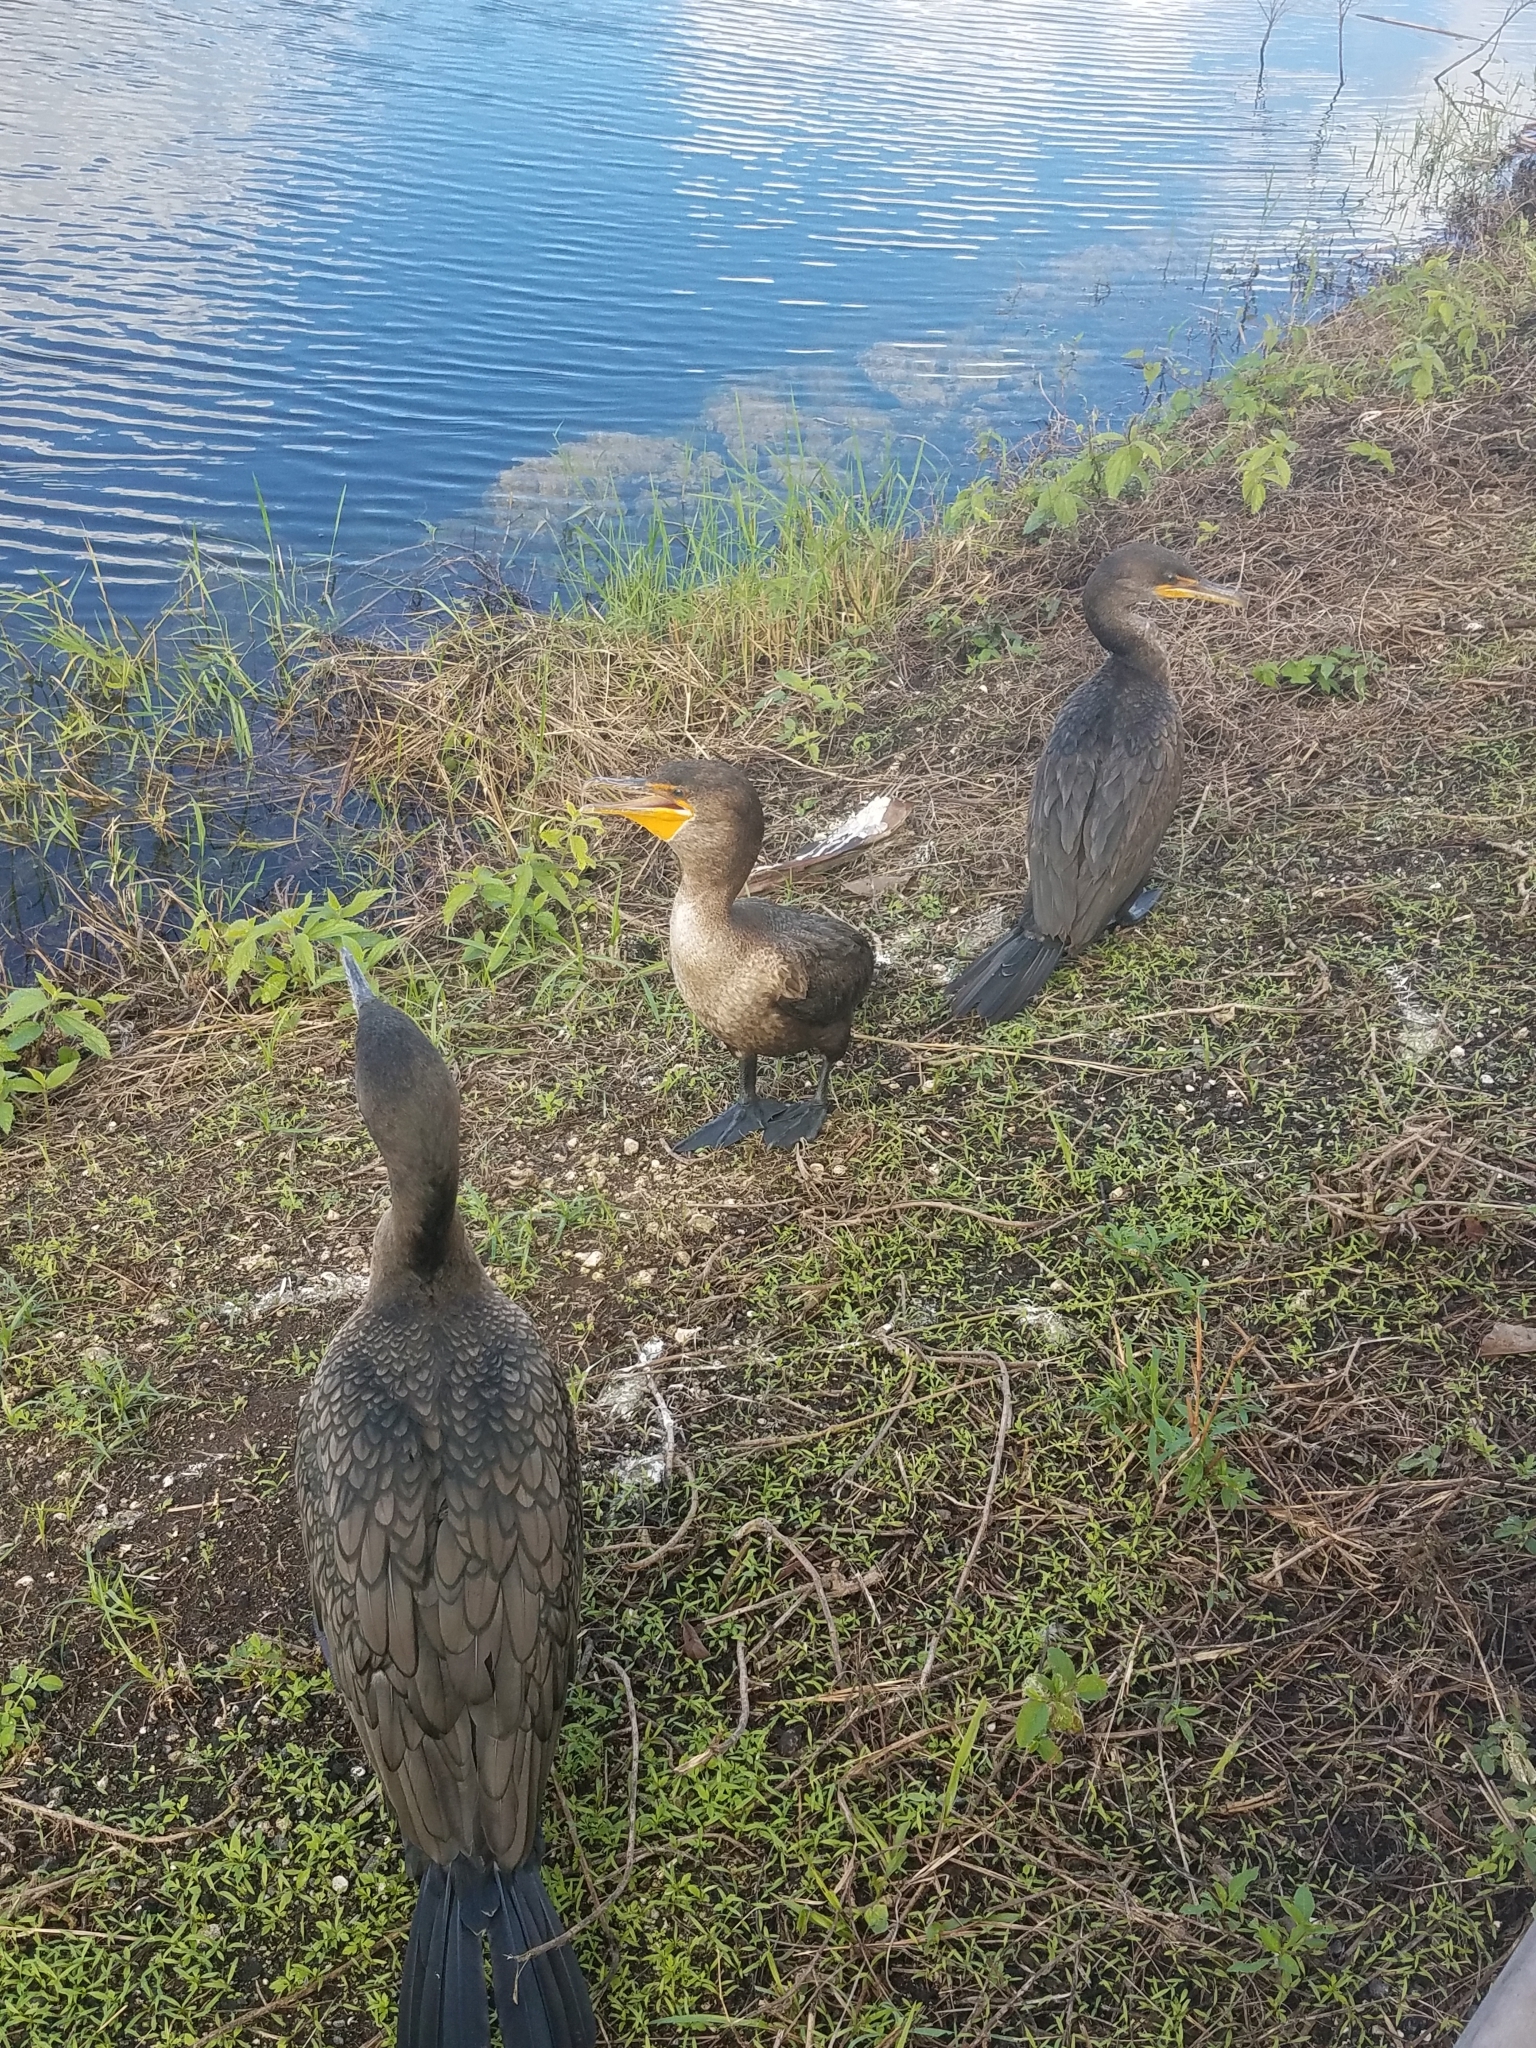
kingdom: Animalia
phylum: Chordata
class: Aves
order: Suliformes
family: Phalacrocoracidae
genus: Phalacrocorax
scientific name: Phalacrocorax auritus
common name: Double-crested cormorant
